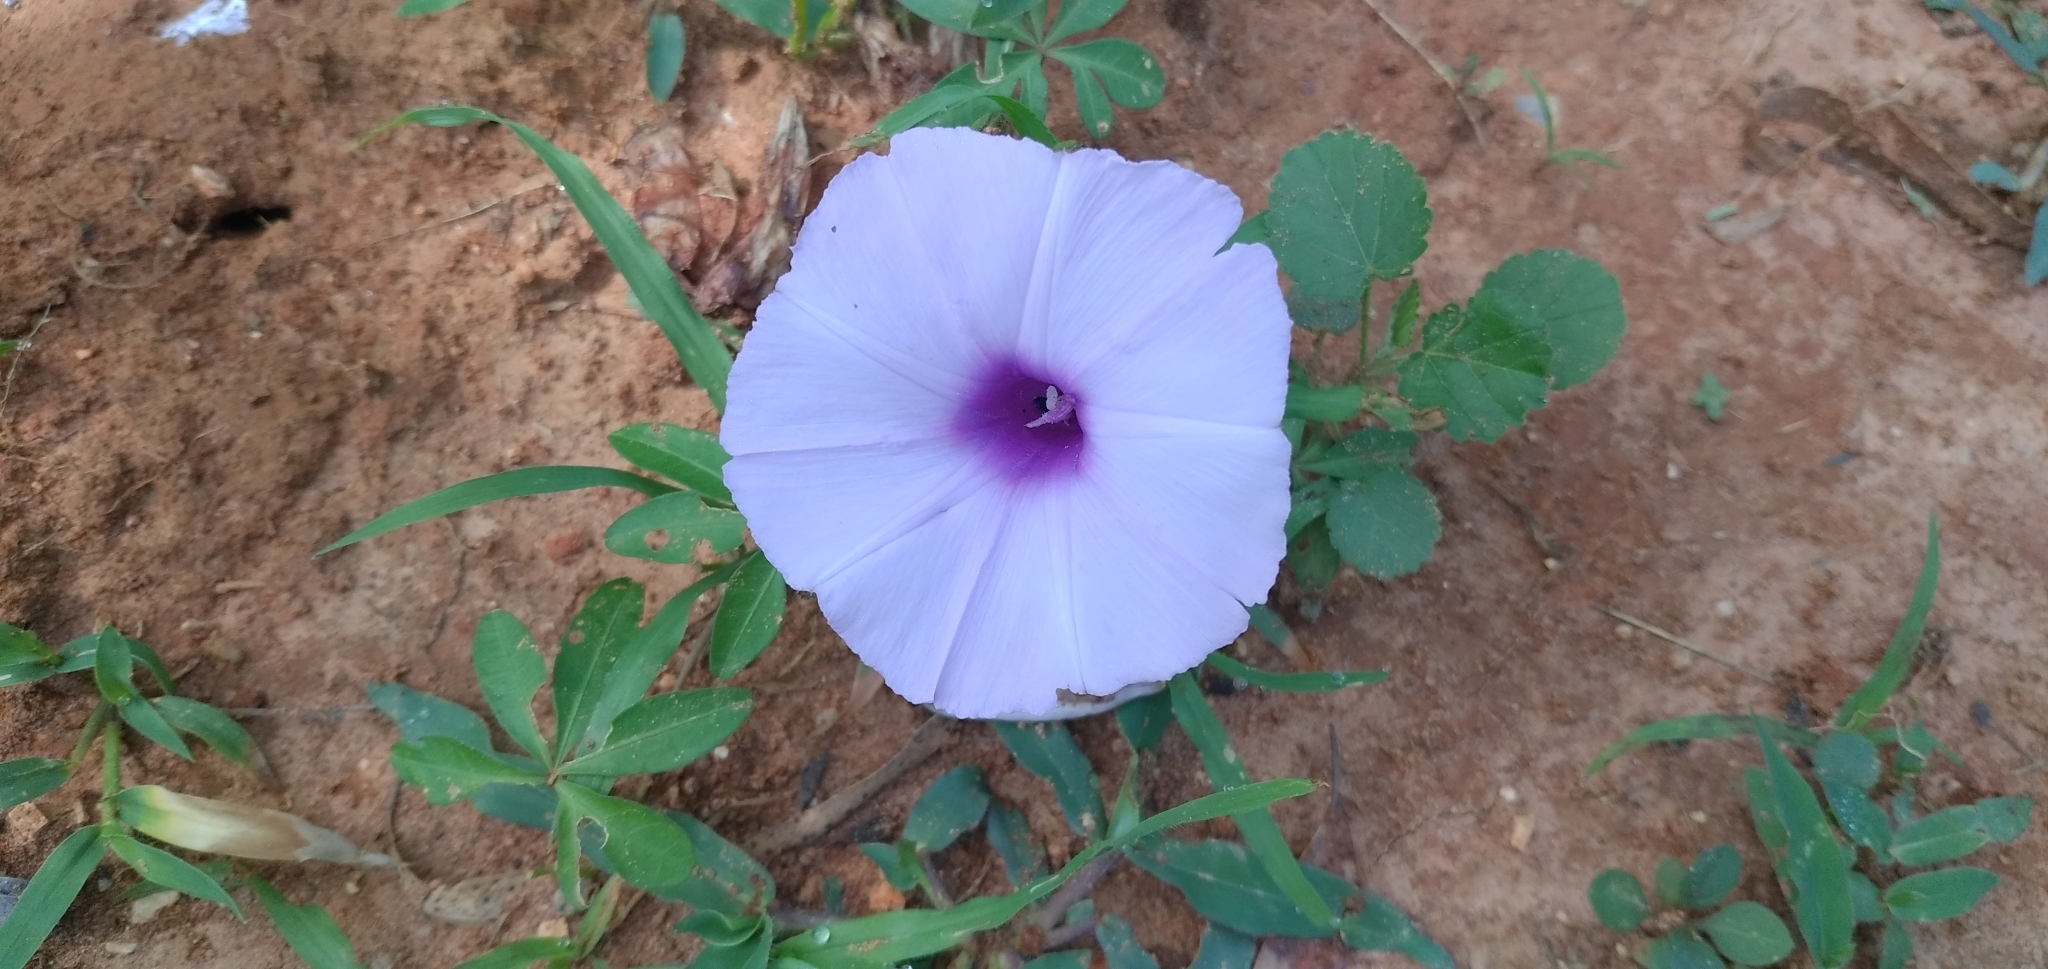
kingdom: Plantae
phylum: Tracheophyta
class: Magnoliopsida
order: Solanales
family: Convolvulaceae
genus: Ipomoea
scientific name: Ipomoea cairica
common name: Mile a minute vine
